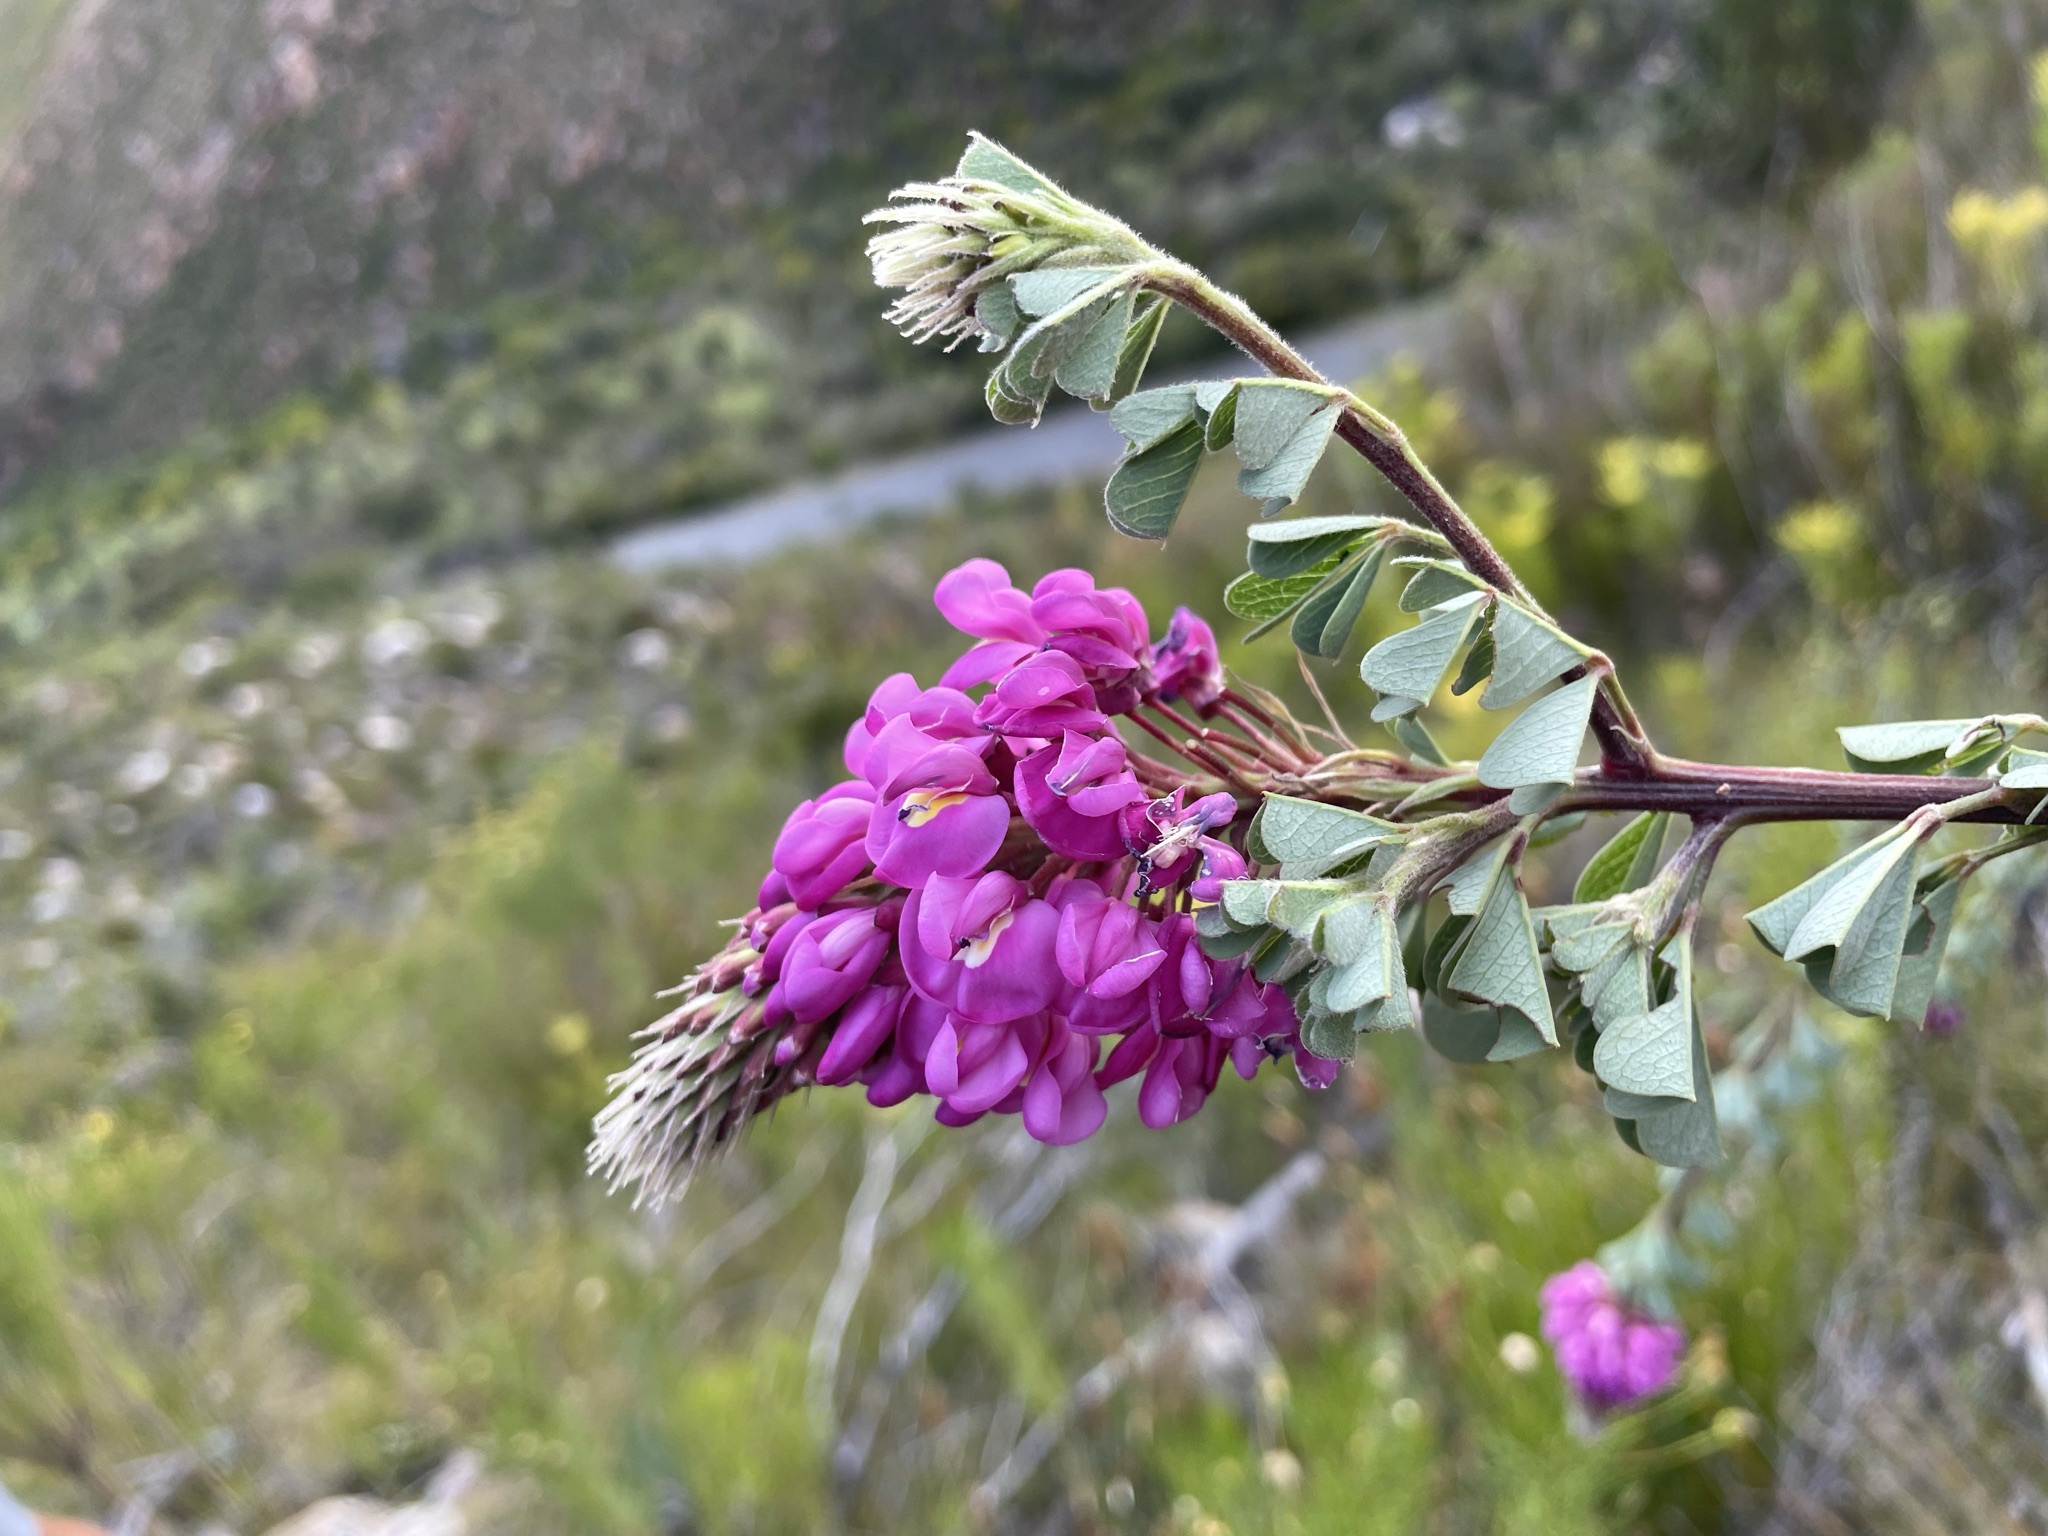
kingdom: Plantae
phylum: Tracheophyta
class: Magnoliopsida
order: Fabales
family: Fabaceae
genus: Hypocalyptus
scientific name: Hypocalyptus sophoroides
